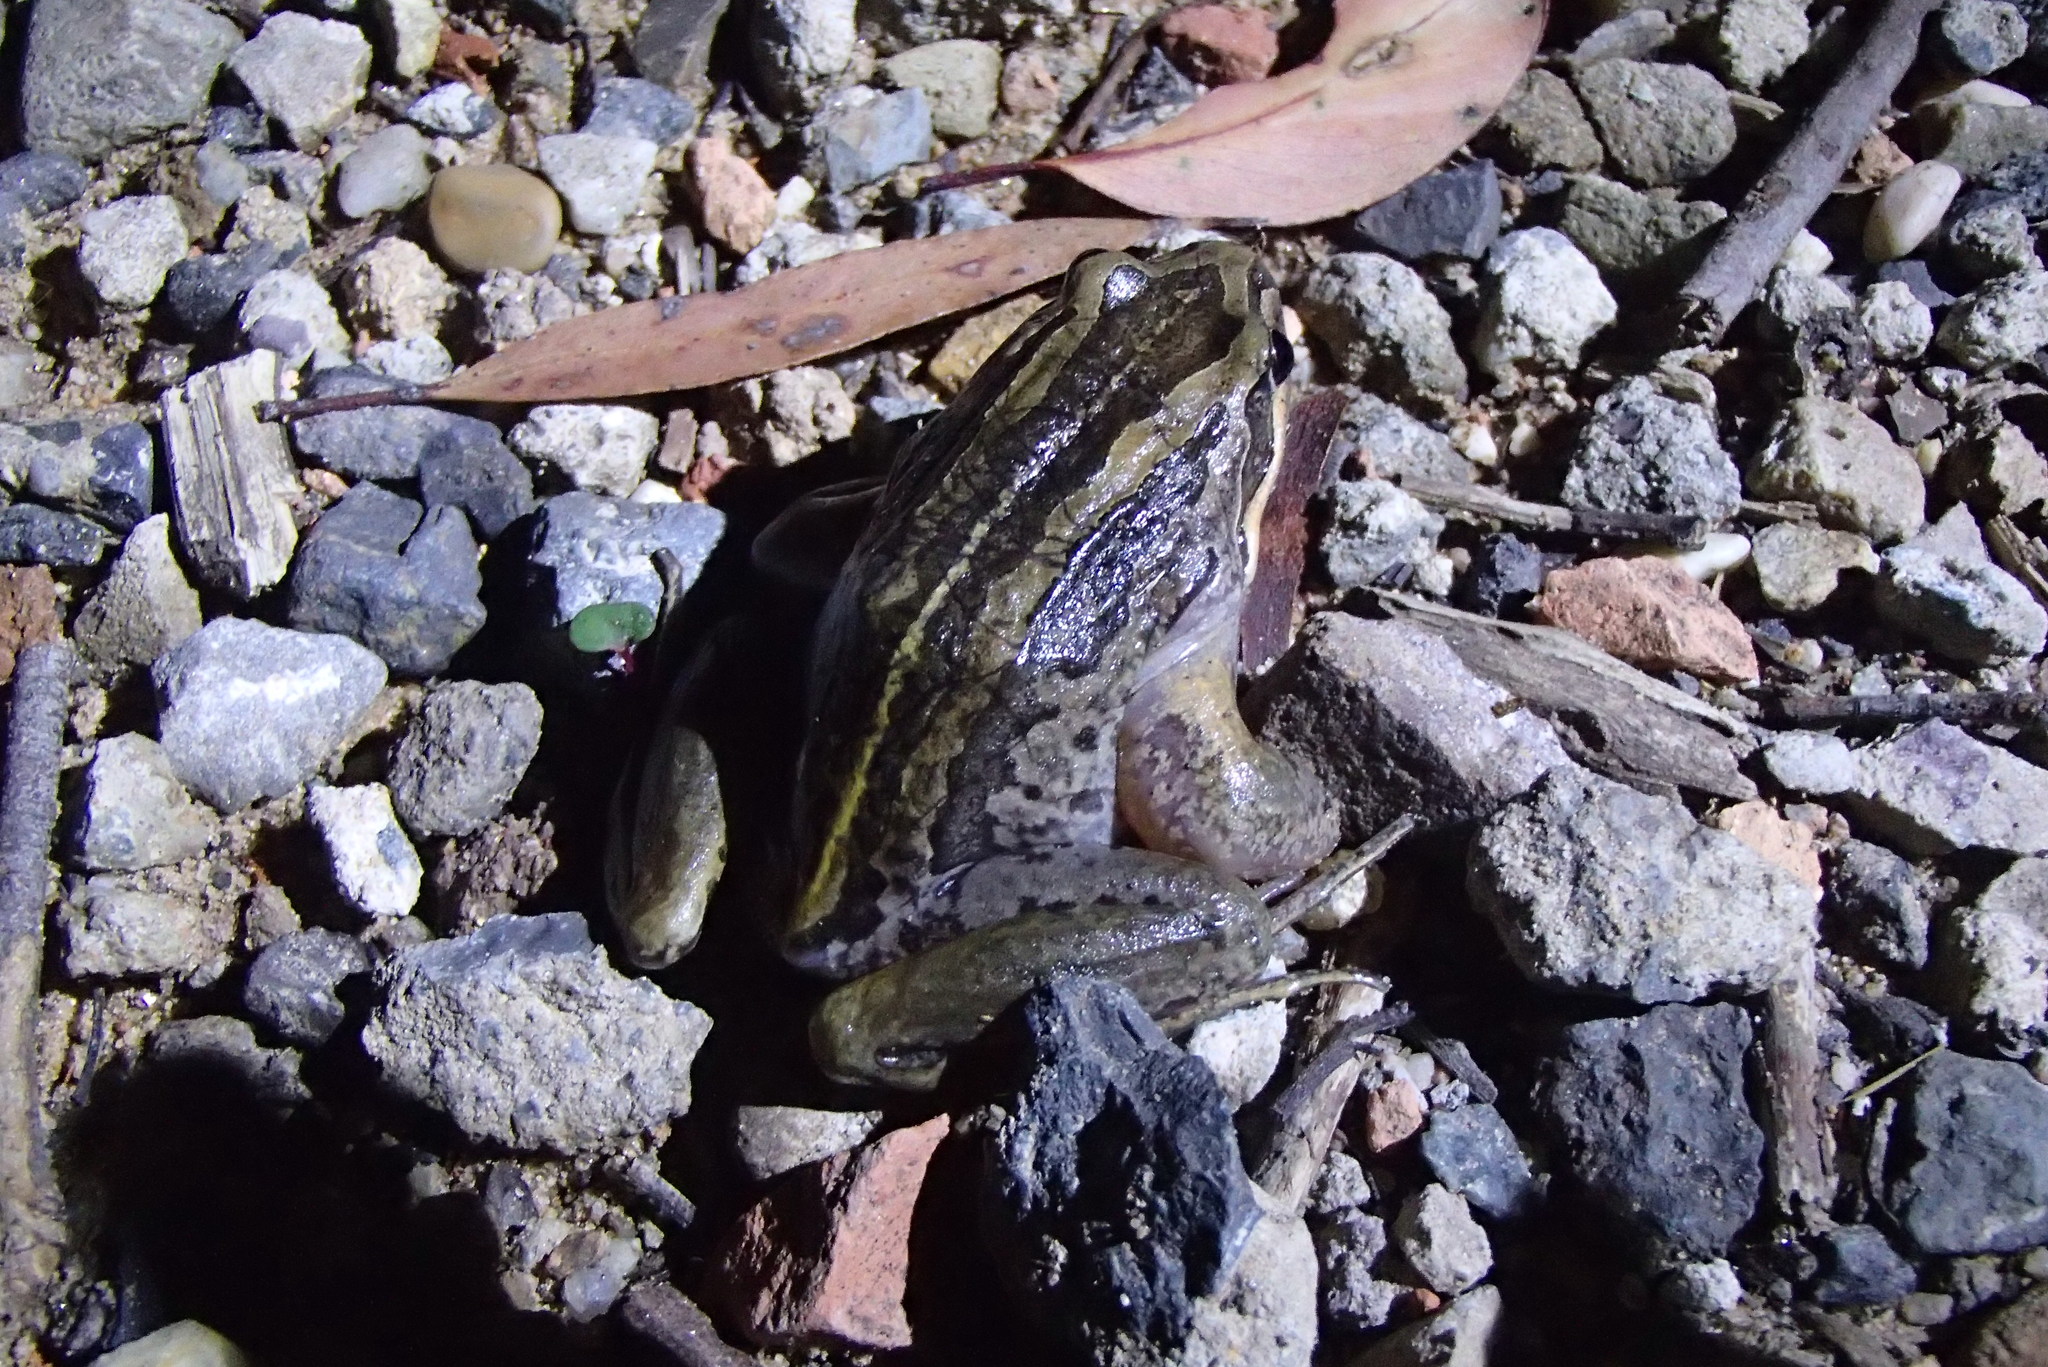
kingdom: Animalia
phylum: Chordata
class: Amphibia
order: Anura
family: Limnodynastidae
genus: Limnodynastes
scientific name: Limnodynastes peronii
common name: Brown frog
